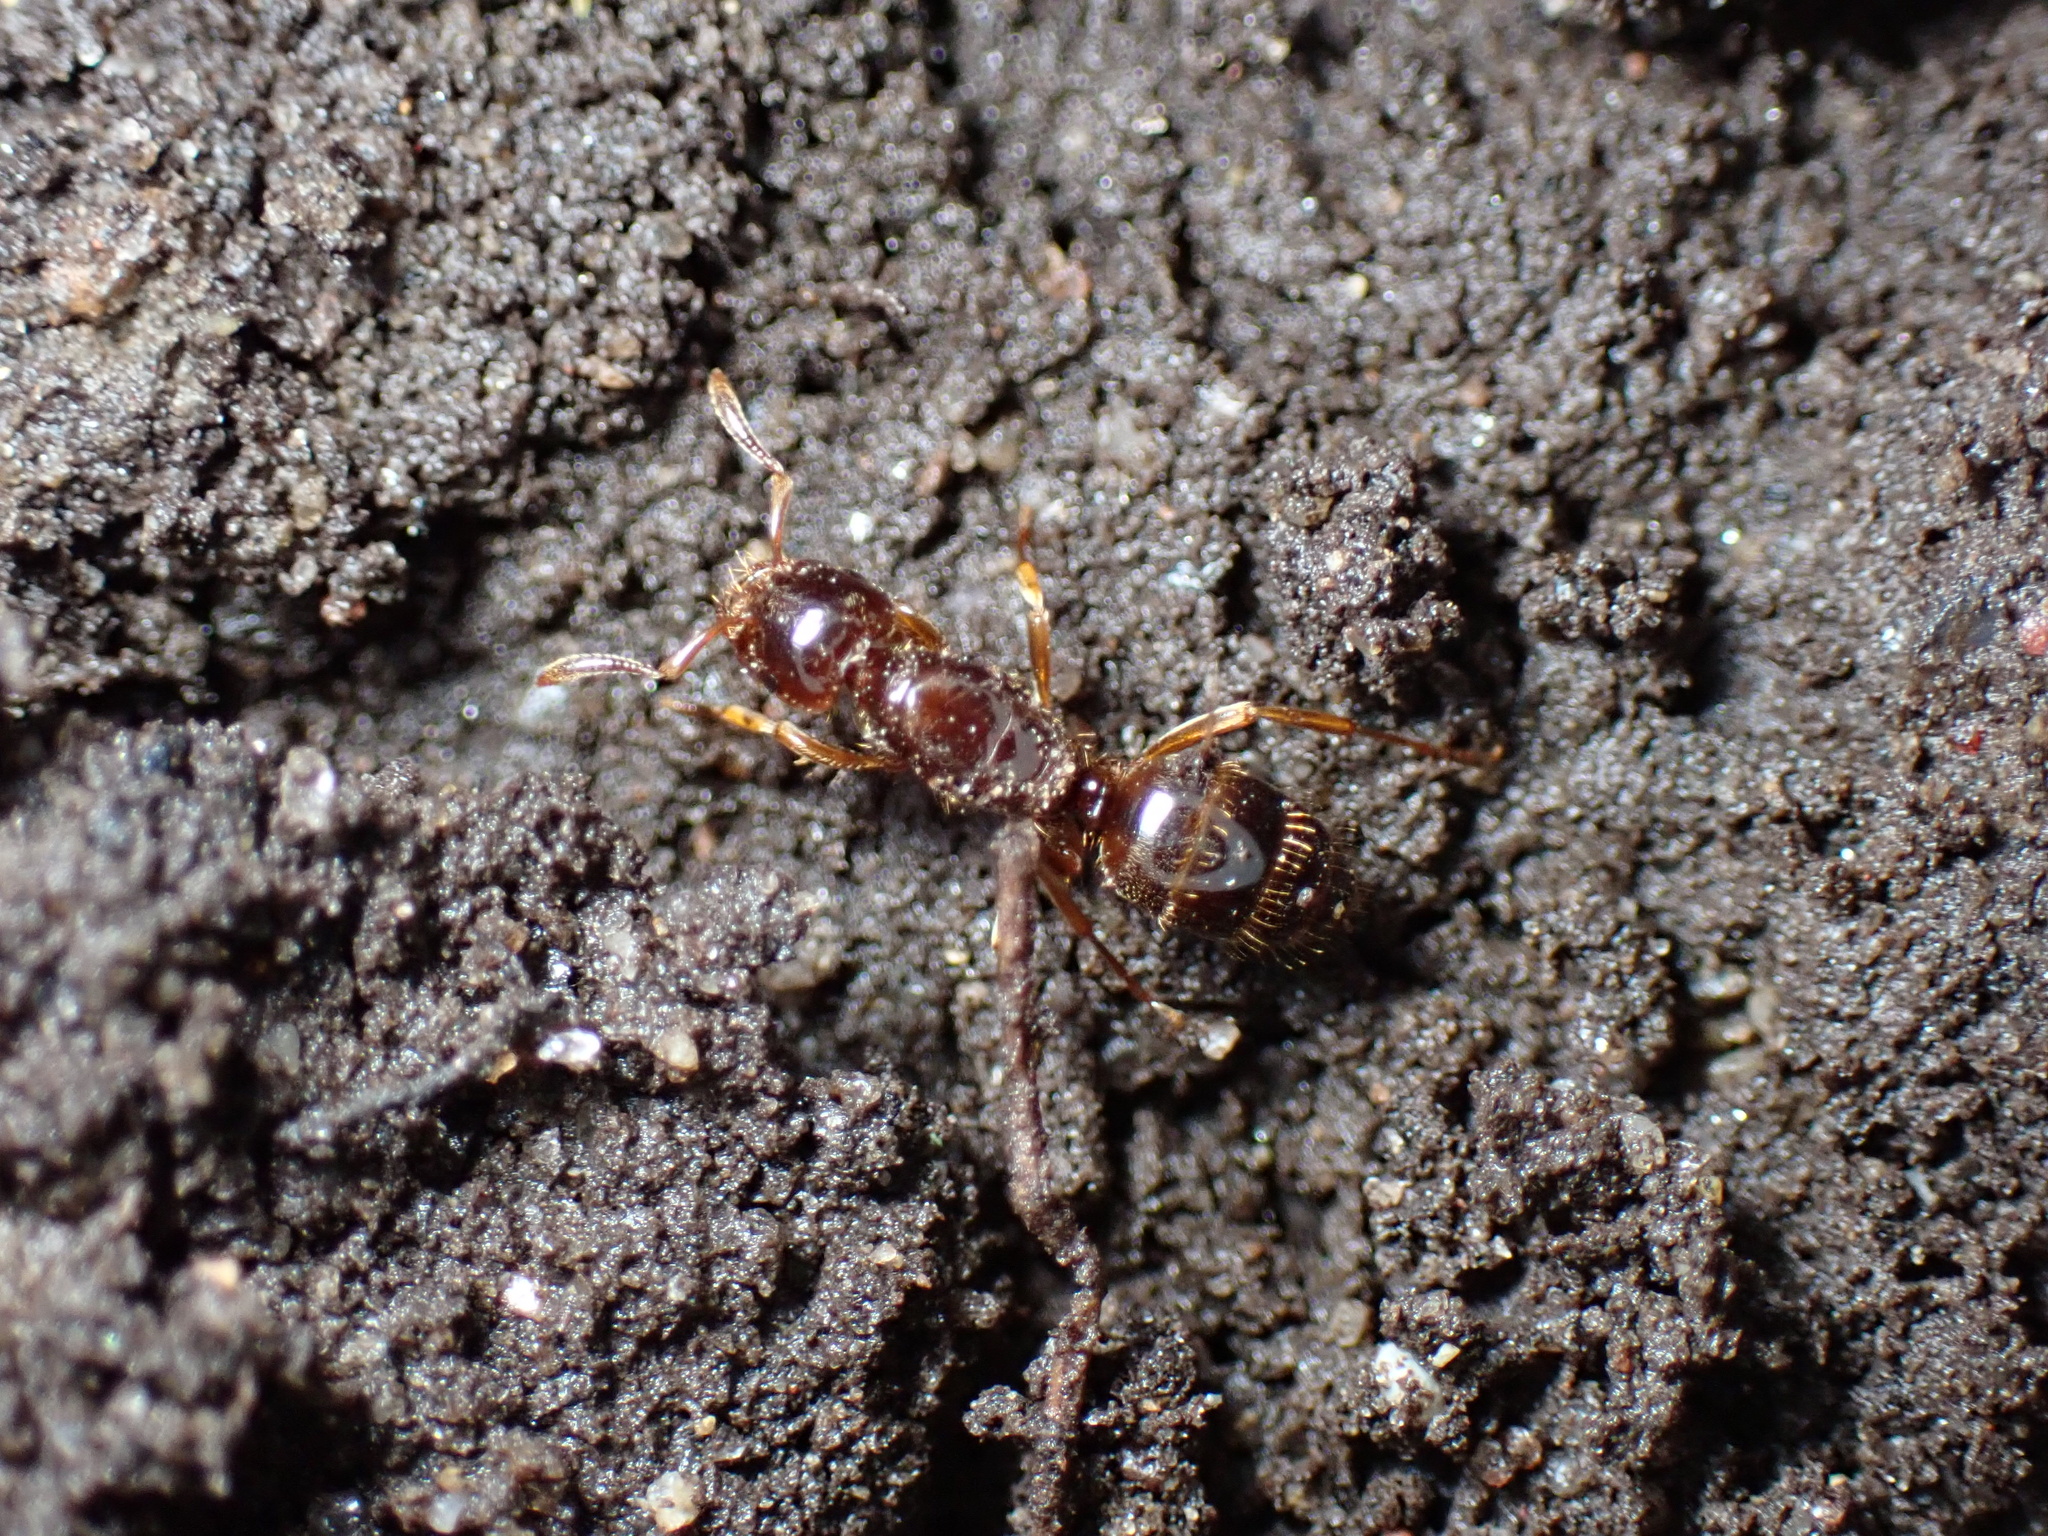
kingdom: Animalia
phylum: Arthropoda
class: Insecta
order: Hymenoptera
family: Formicidae
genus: Lasius
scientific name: Lasius claviger
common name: Common citronella ant
